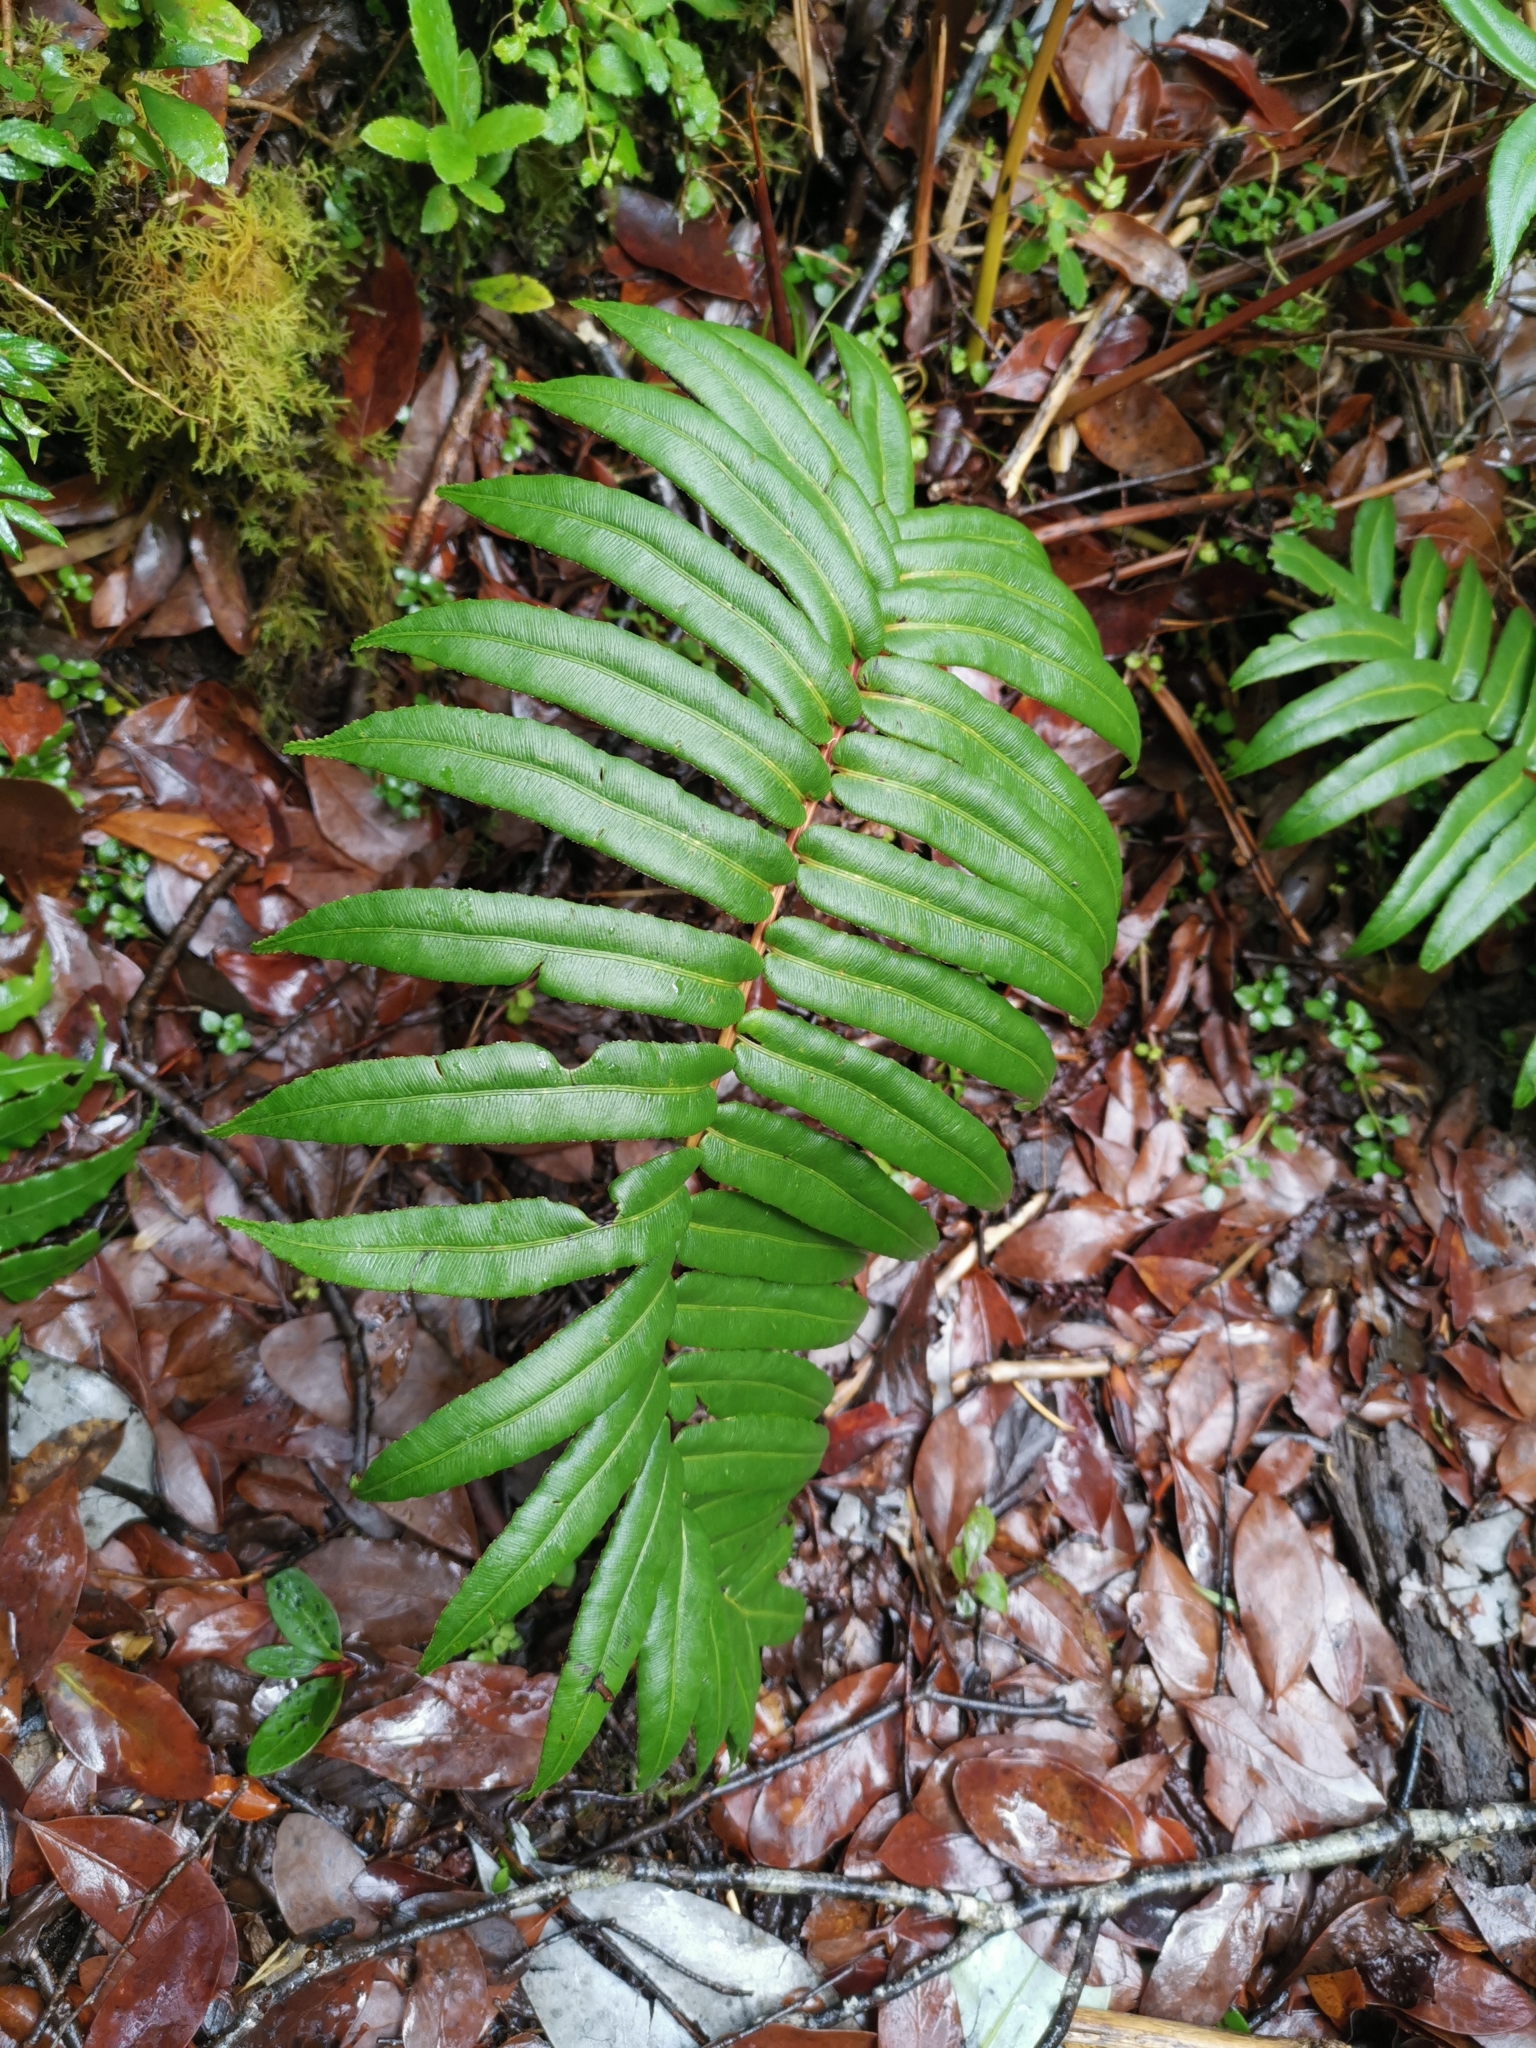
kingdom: Plantae
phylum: Tracheophyta
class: Polypodiopsida
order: Polypodiales
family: Blechnaceae
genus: Parablechnum
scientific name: Parablechnum chilense
